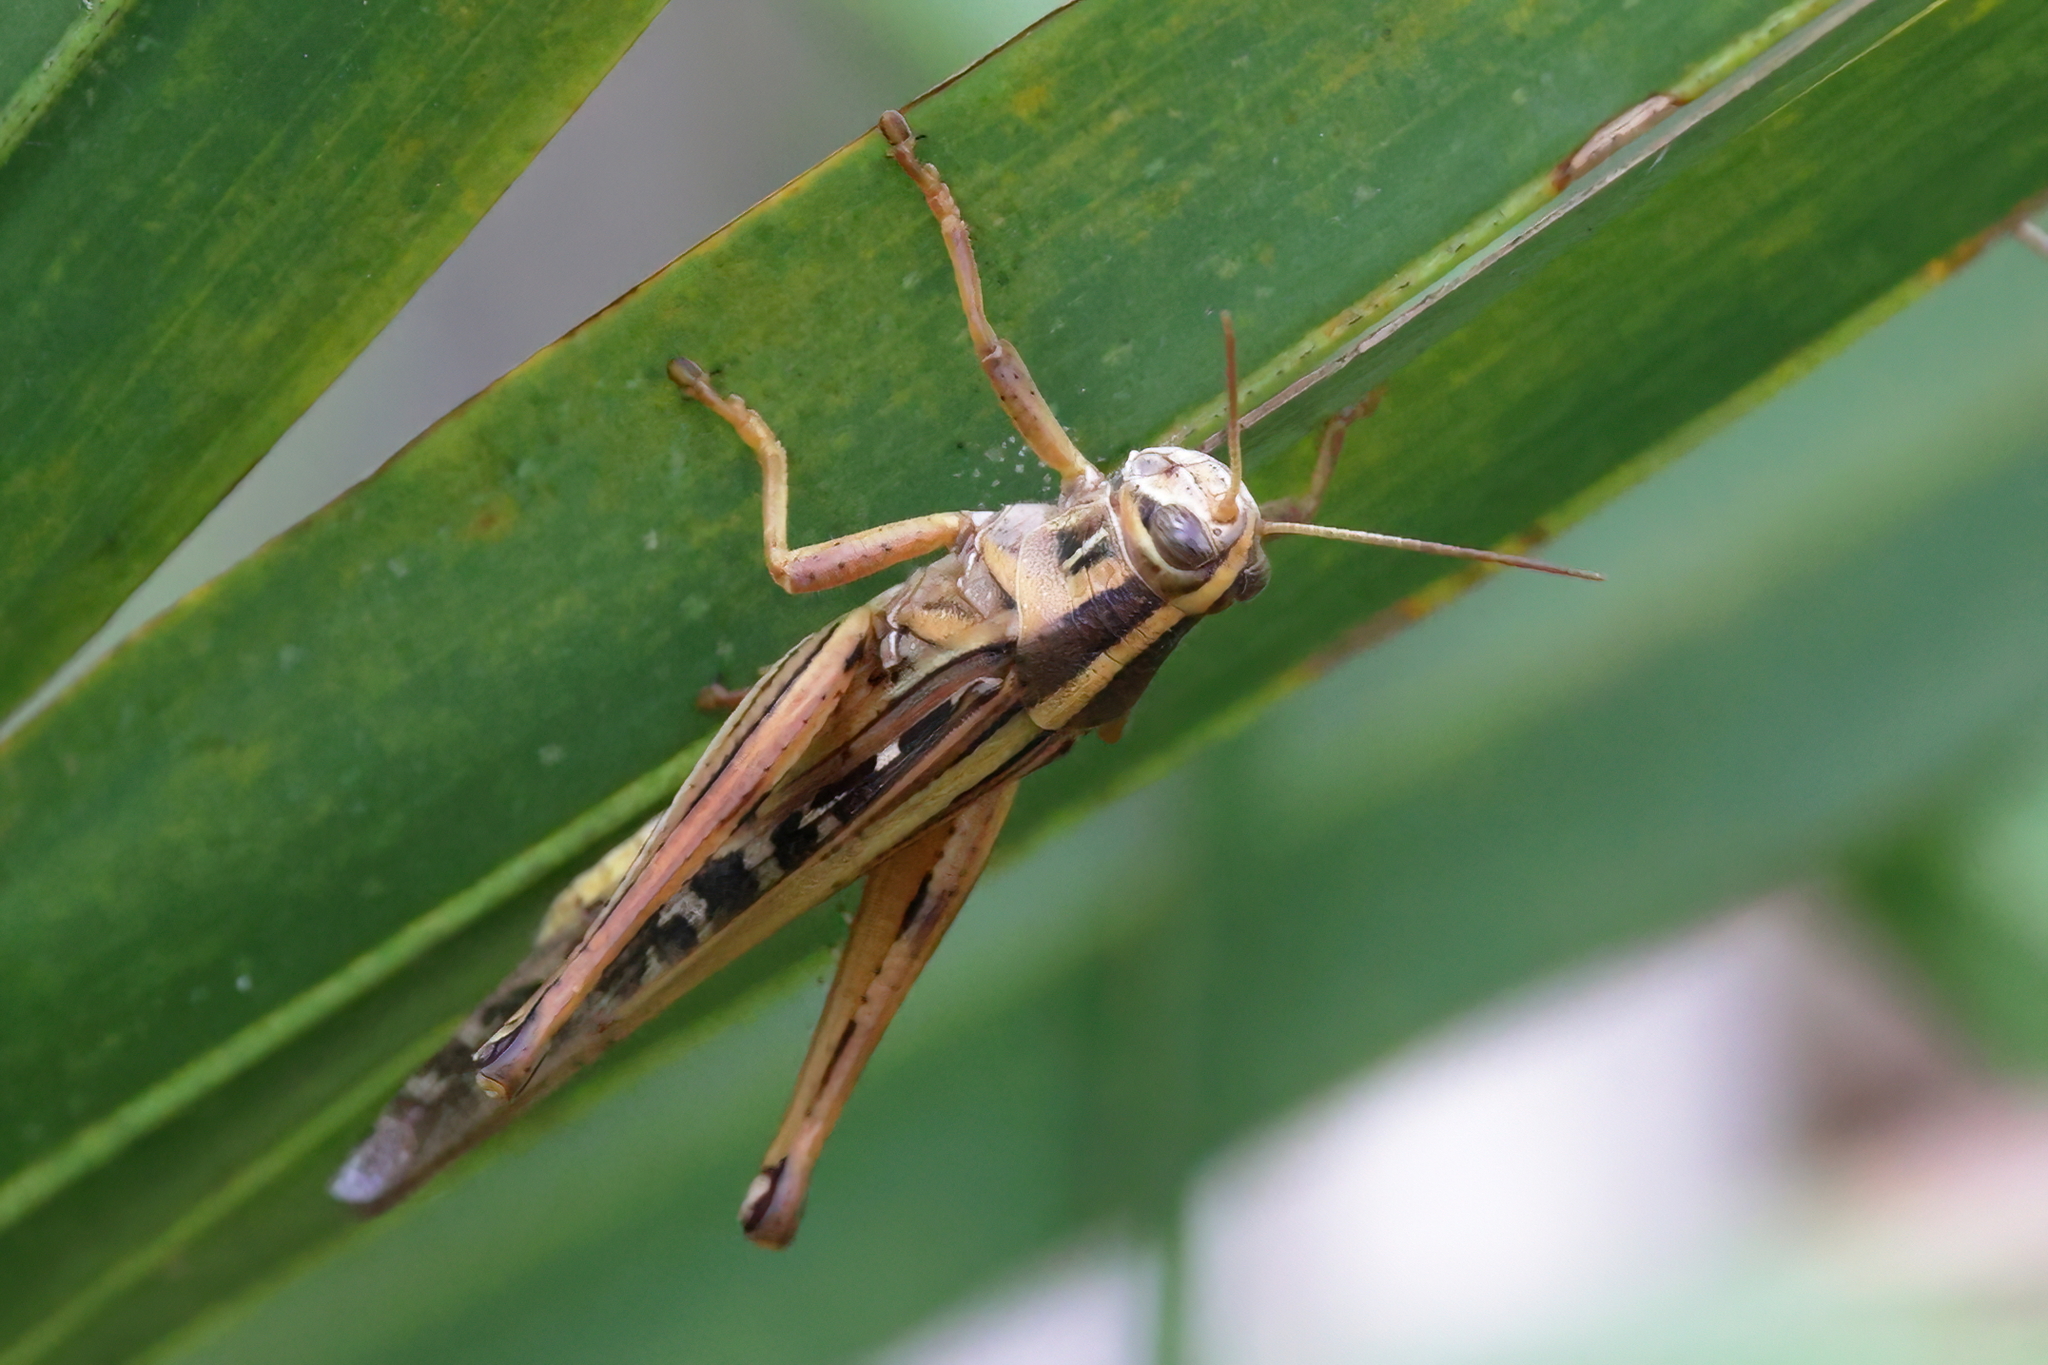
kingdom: Animalia
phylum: Arthropoda
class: Insecta
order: Orthoptera
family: Acrididae
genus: Schistocerca
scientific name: Schistocerca americana
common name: American bird locust
